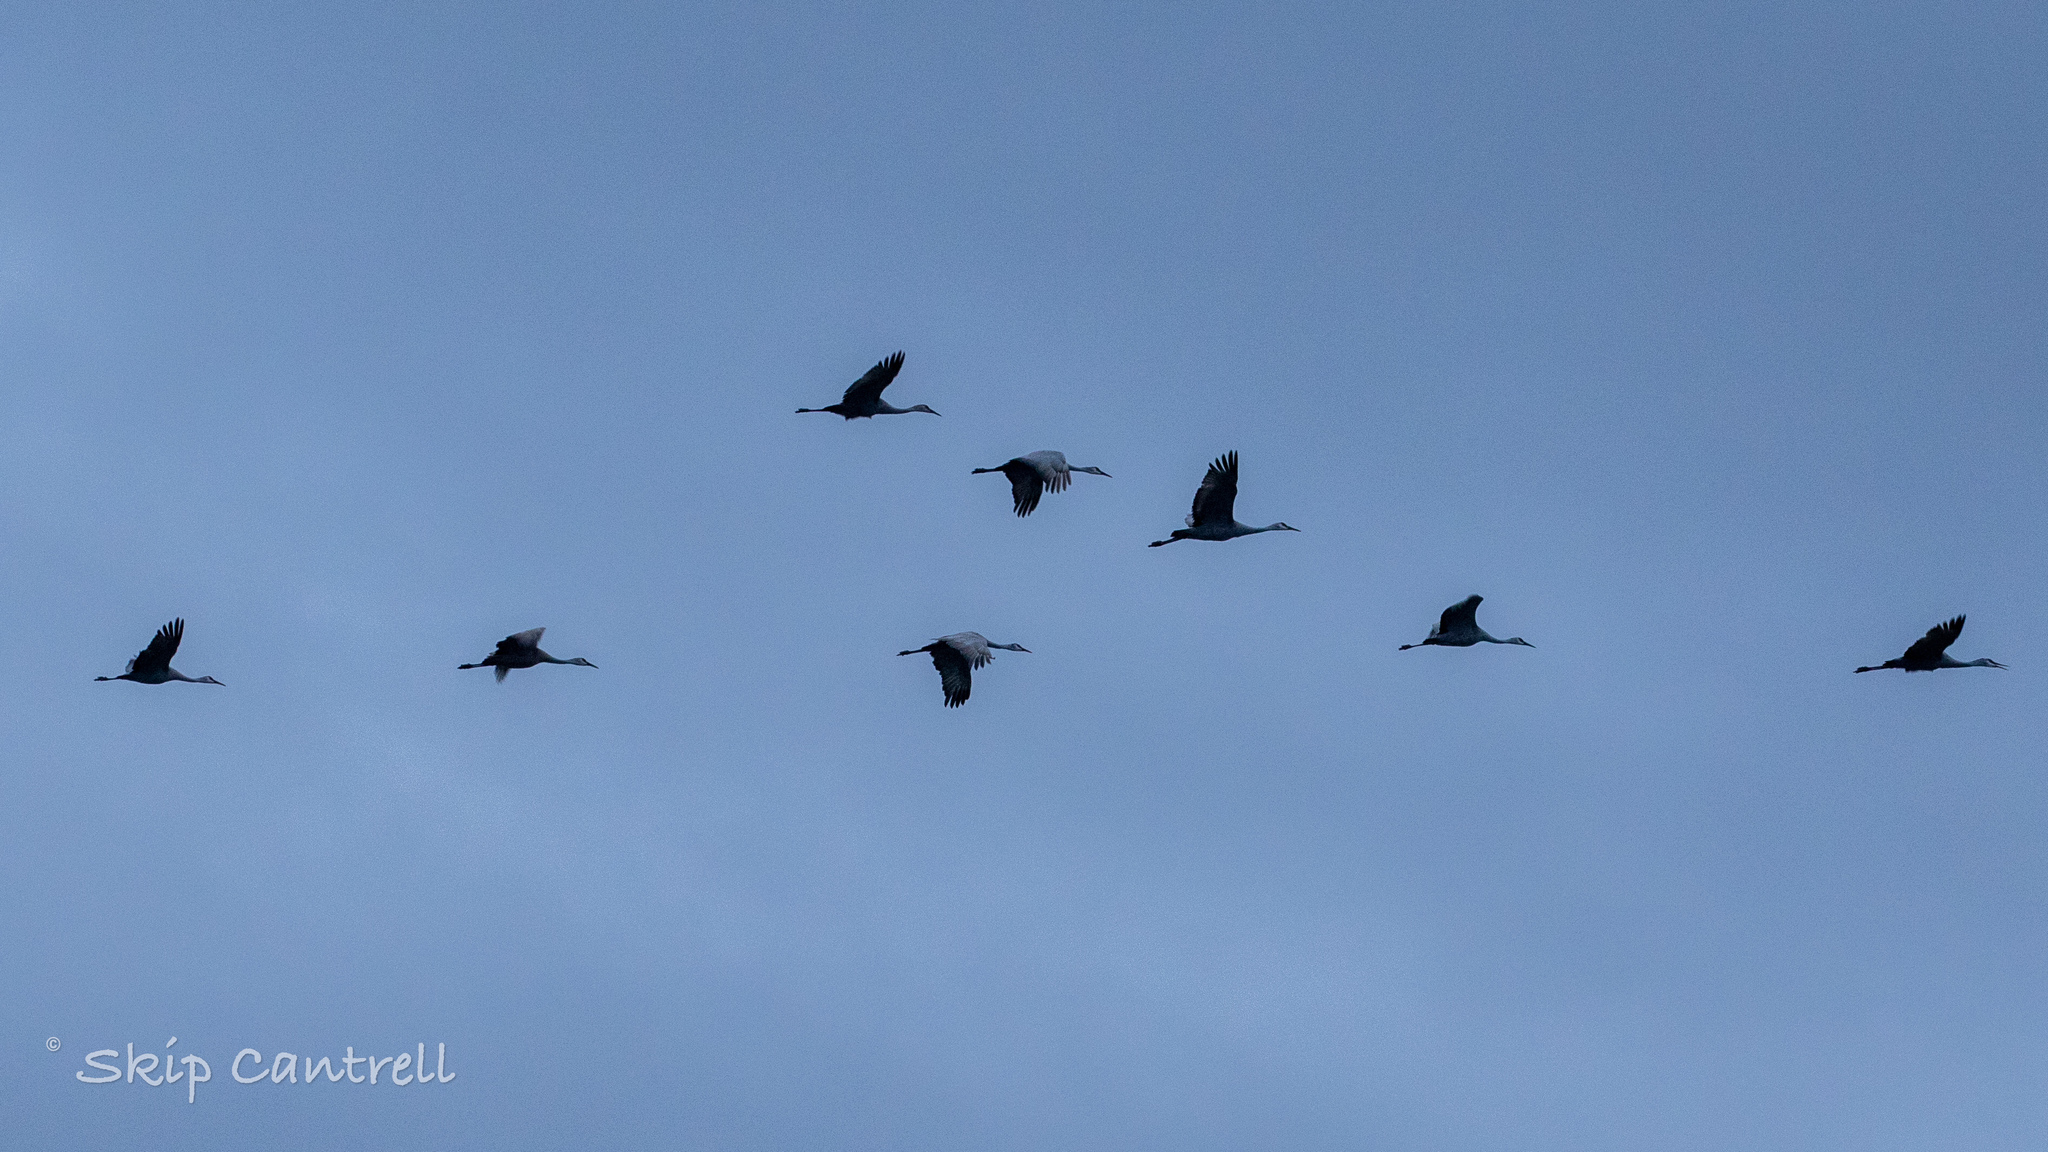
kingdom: Animalia
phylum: Chordata
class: Aves
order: Gruiformes
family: Gruidae
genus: Grus
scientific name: Grus canadensis
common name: Sandhill crane
